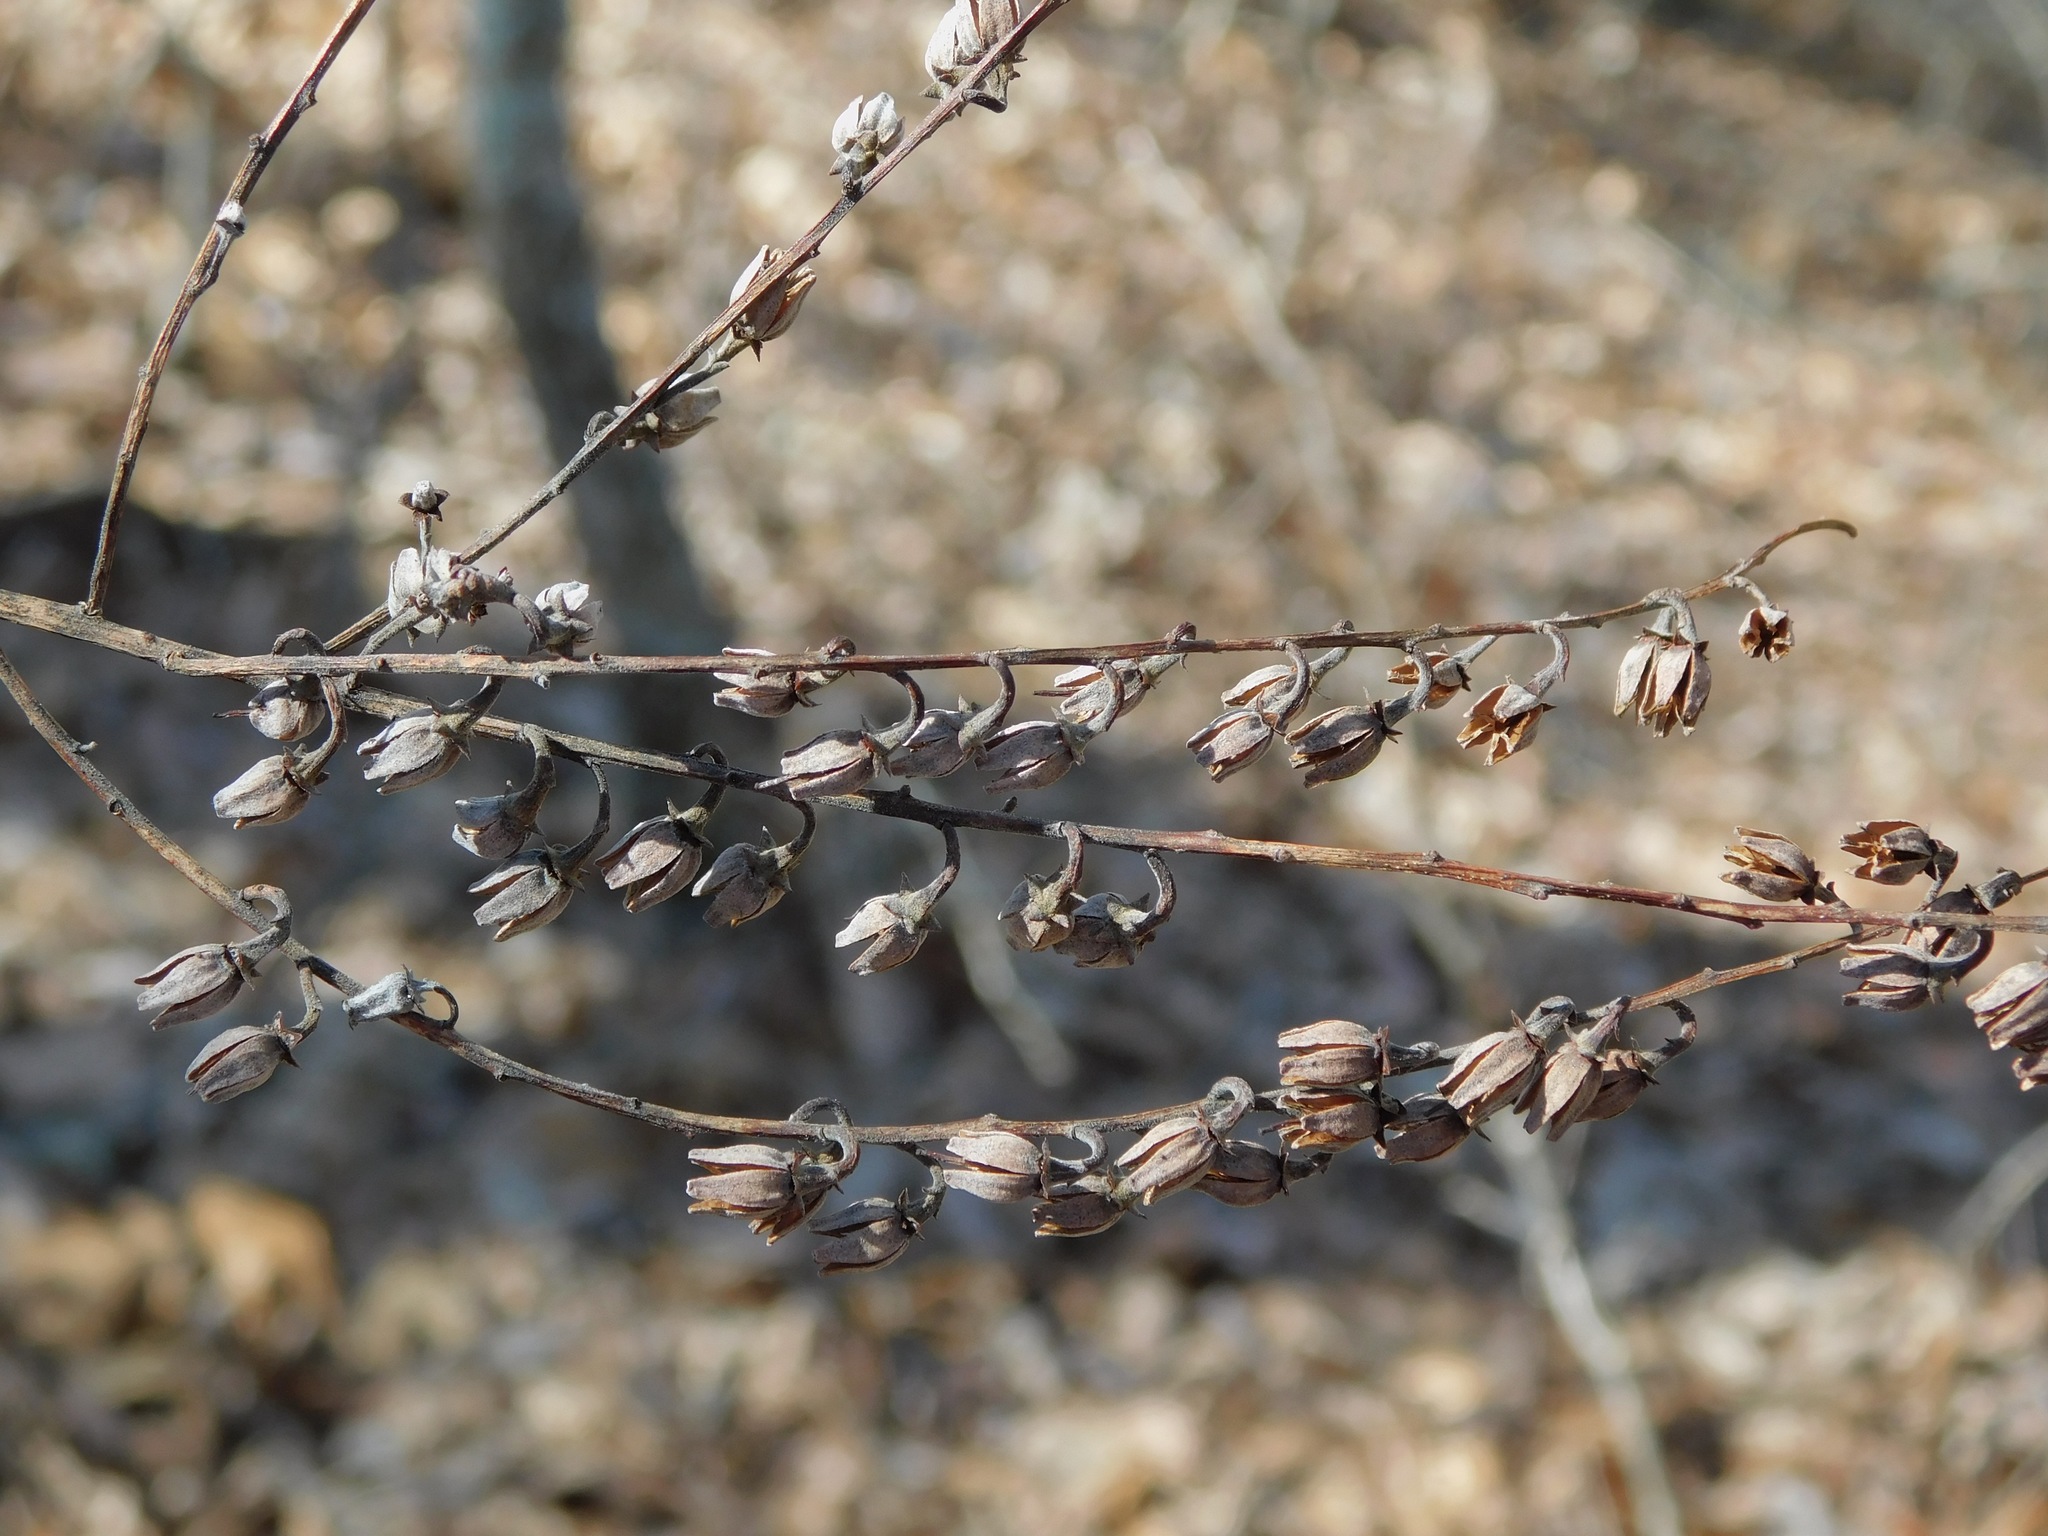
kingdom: Plantae
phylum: Tracheophyta
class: Magnoliopsida
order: Ericales
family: Ericaceae
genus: Oxydendrum
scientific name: Oxydendrum arboreum
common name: Sourwood
